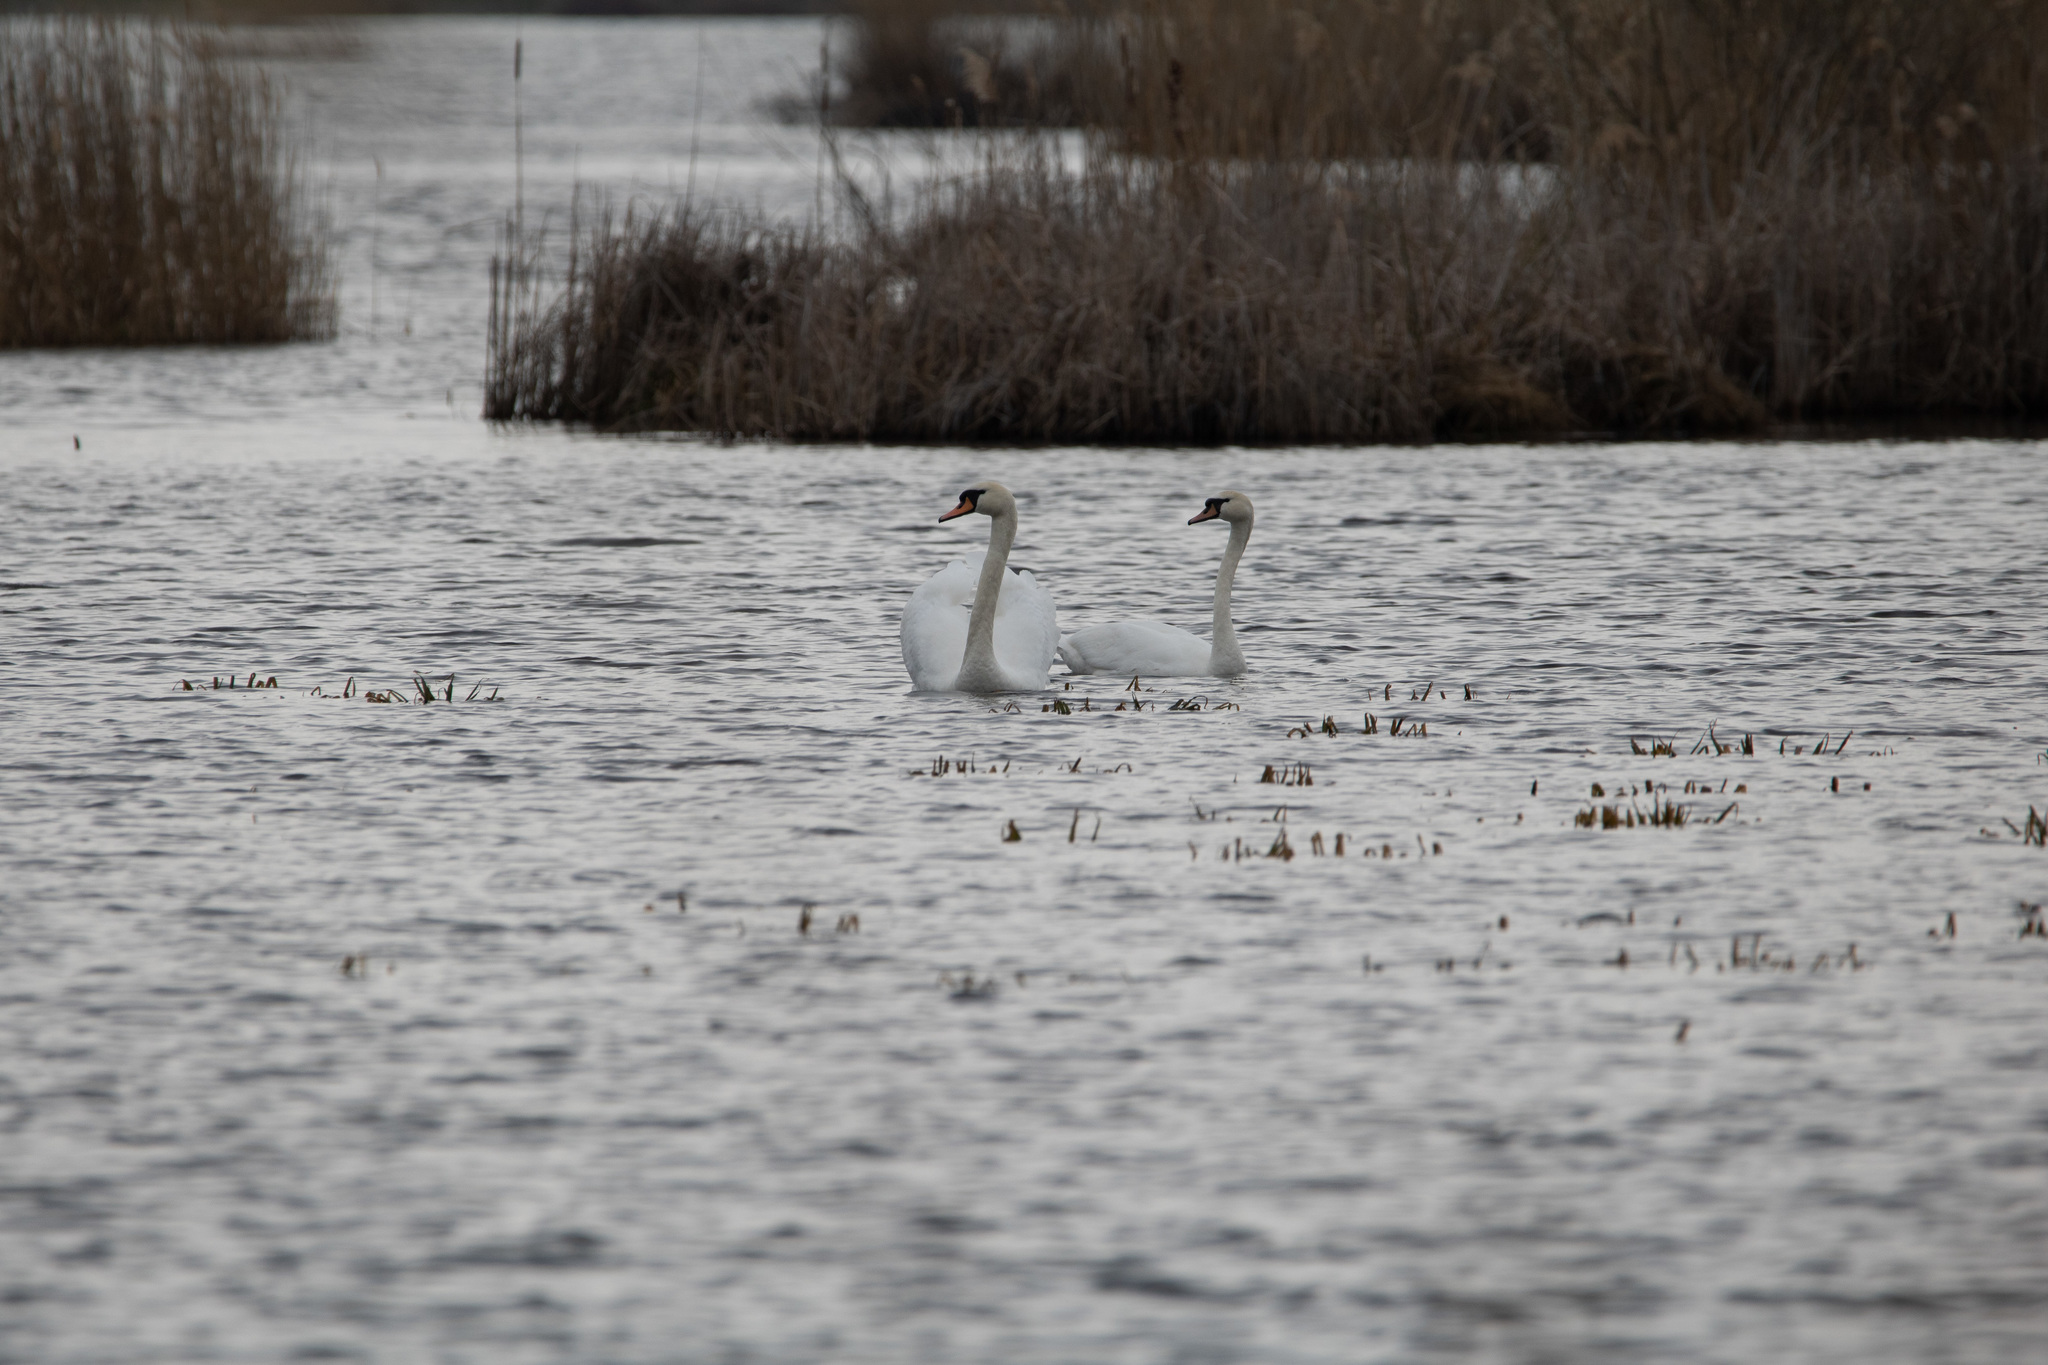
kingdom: Animalia
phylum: Chordata
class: Aves
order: Anseriformes
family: Anatidae
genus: Cygnus
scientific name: Cygnus olor
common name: Mute swan
